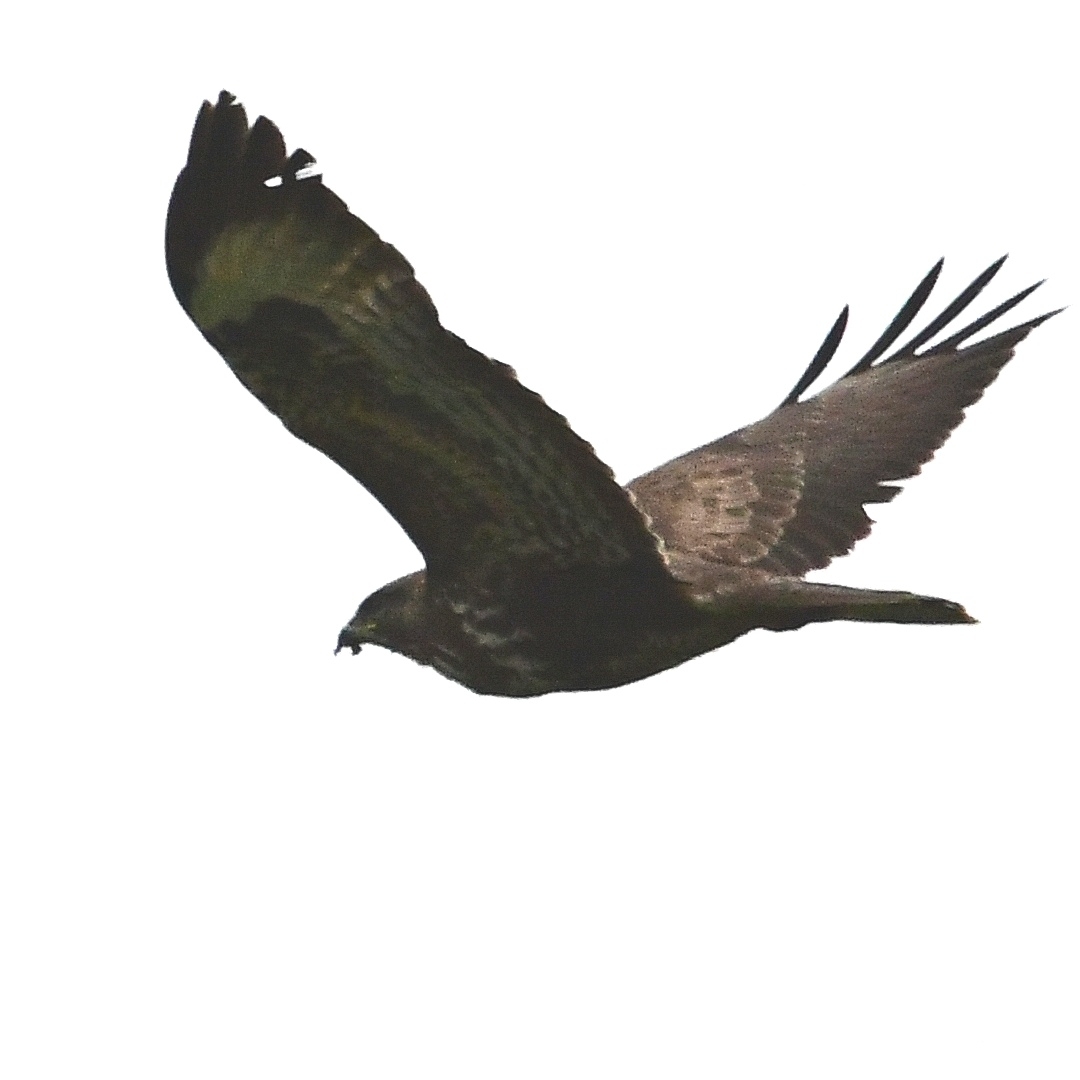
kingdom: Animalia
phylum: Chordata
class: Aves
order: Accipitriformes
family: Accipitridae
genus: Buteo
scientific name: Buteo buteo
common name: Common buzzard
